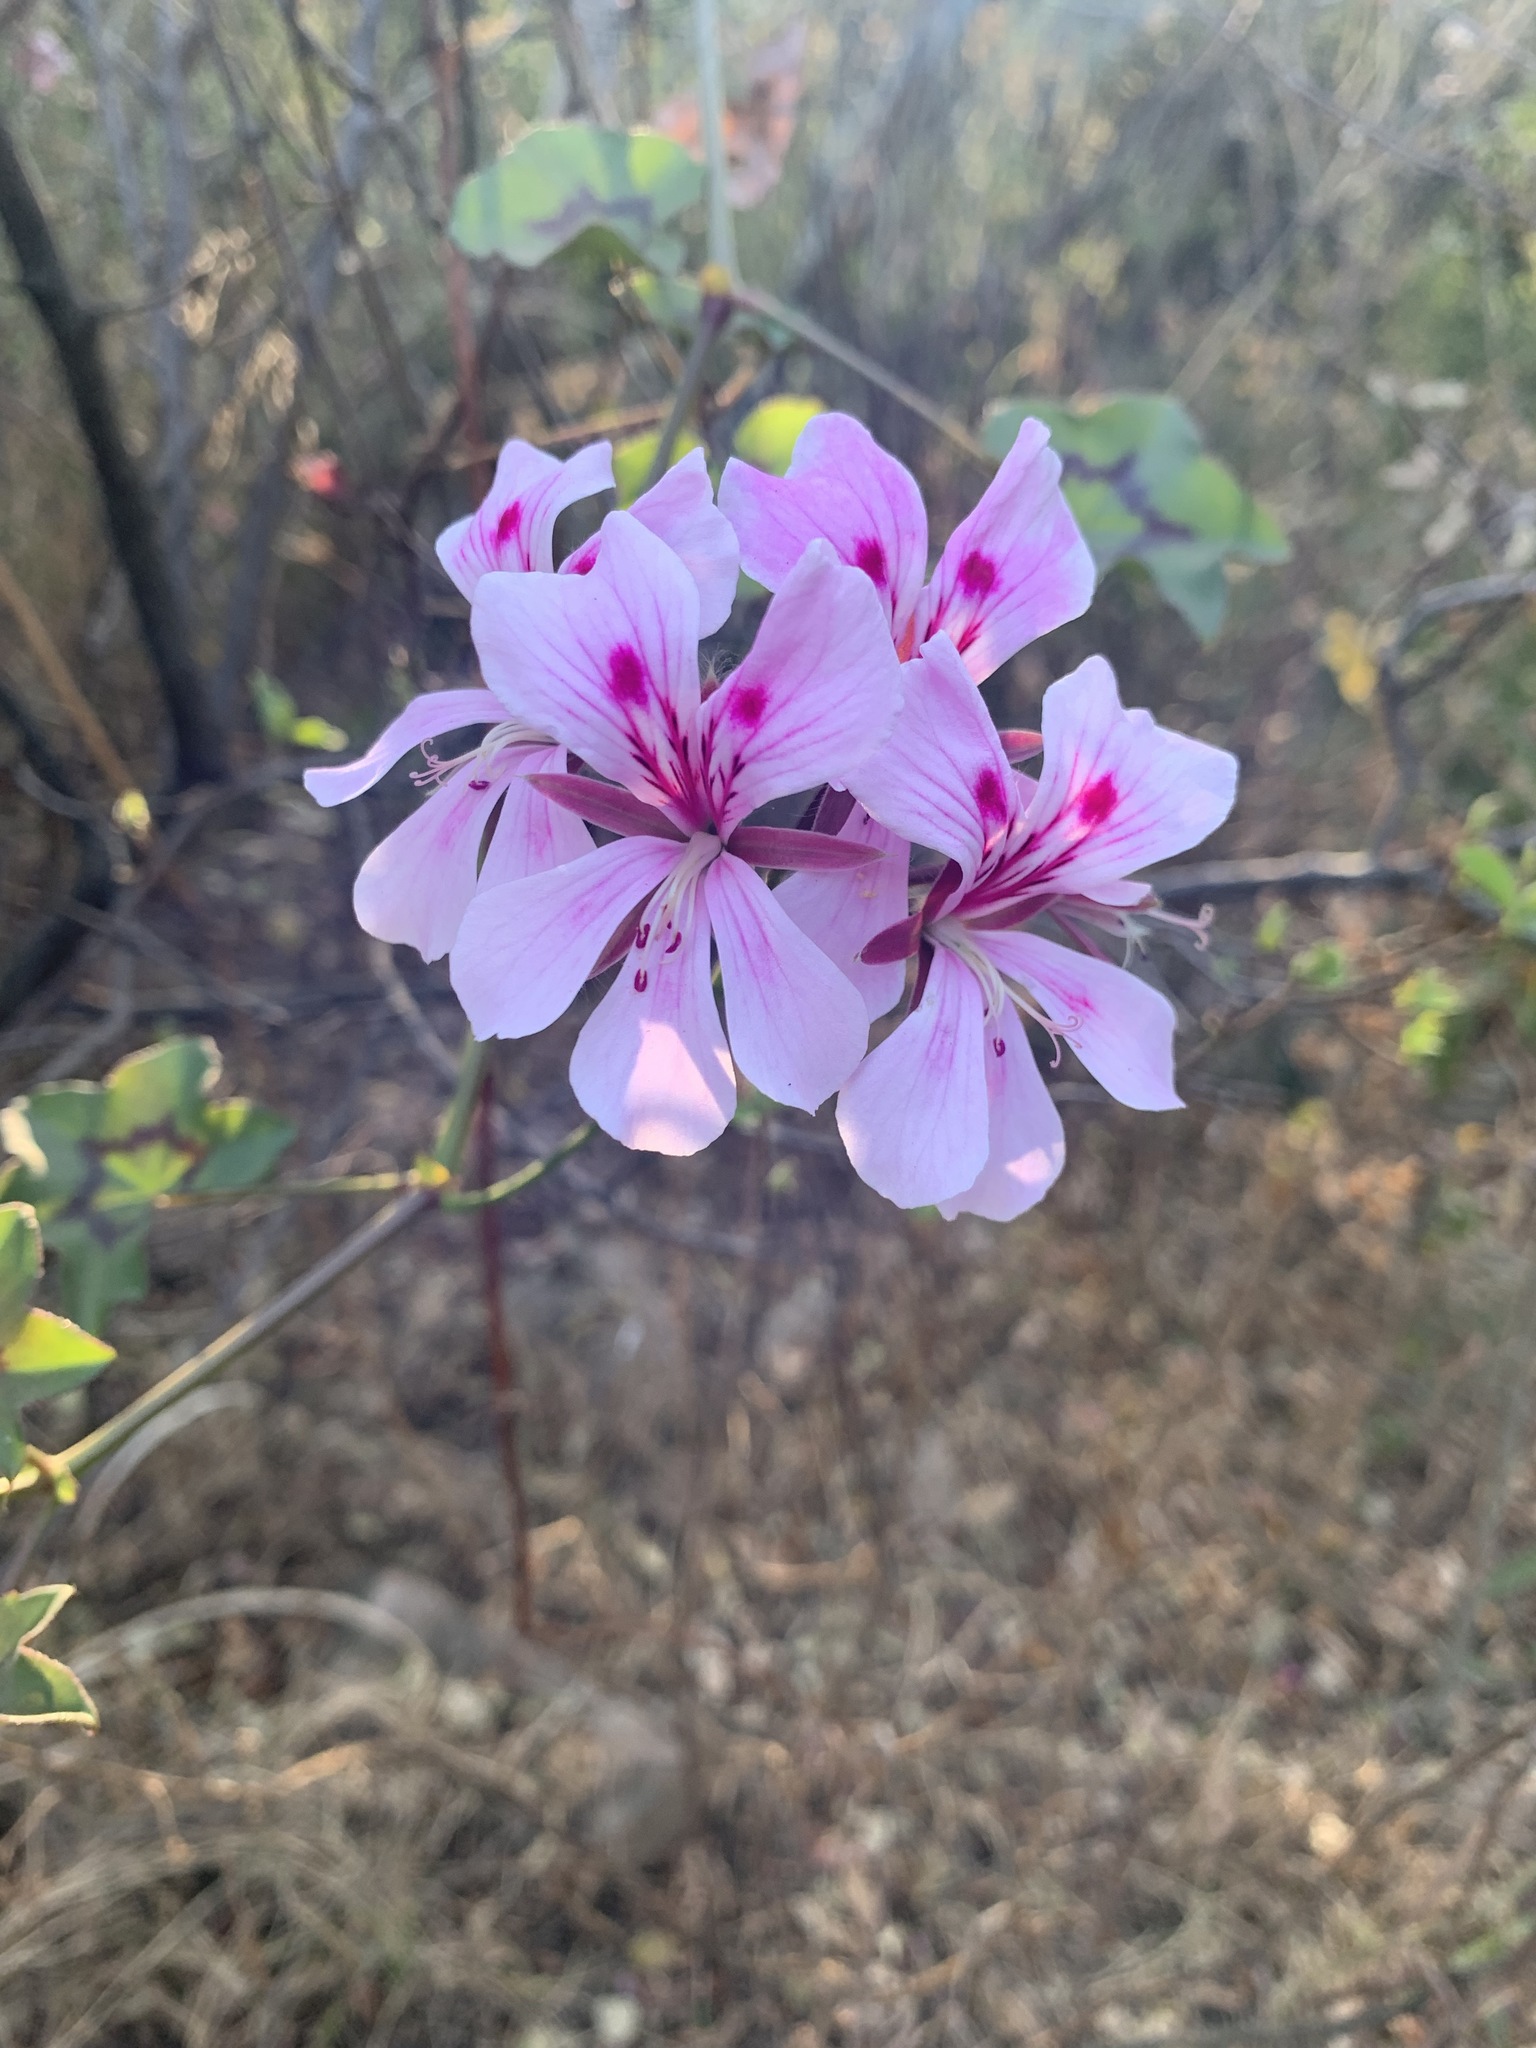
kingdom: Plantae
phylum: Tracheophyta
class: Magnoliopsida
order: Geraniales
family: Geraniaceae
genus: Pelargonium
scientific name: Pelargonium peltatum
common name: Ivyleaf geranium
